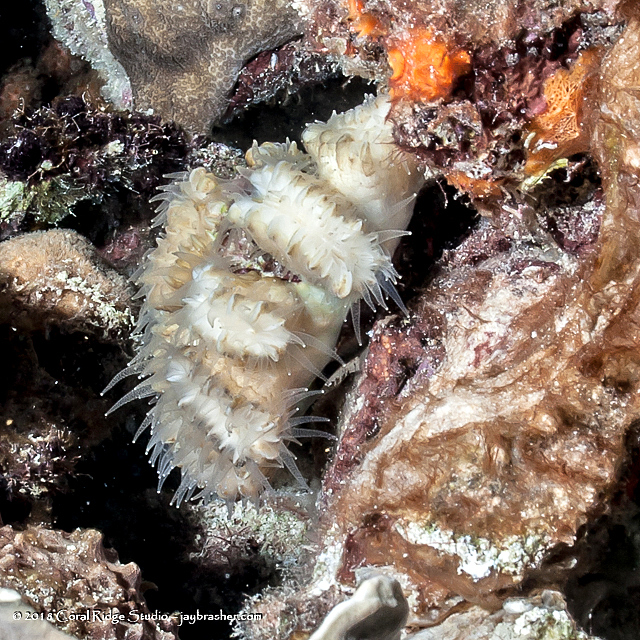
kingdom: Animalia
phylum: Cnidaria
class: Anthozoa
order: Scleractinia
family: Meandrinidae
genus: Eusmilia
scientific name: Eusmilia fastigiata
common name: Smooth flower coral
